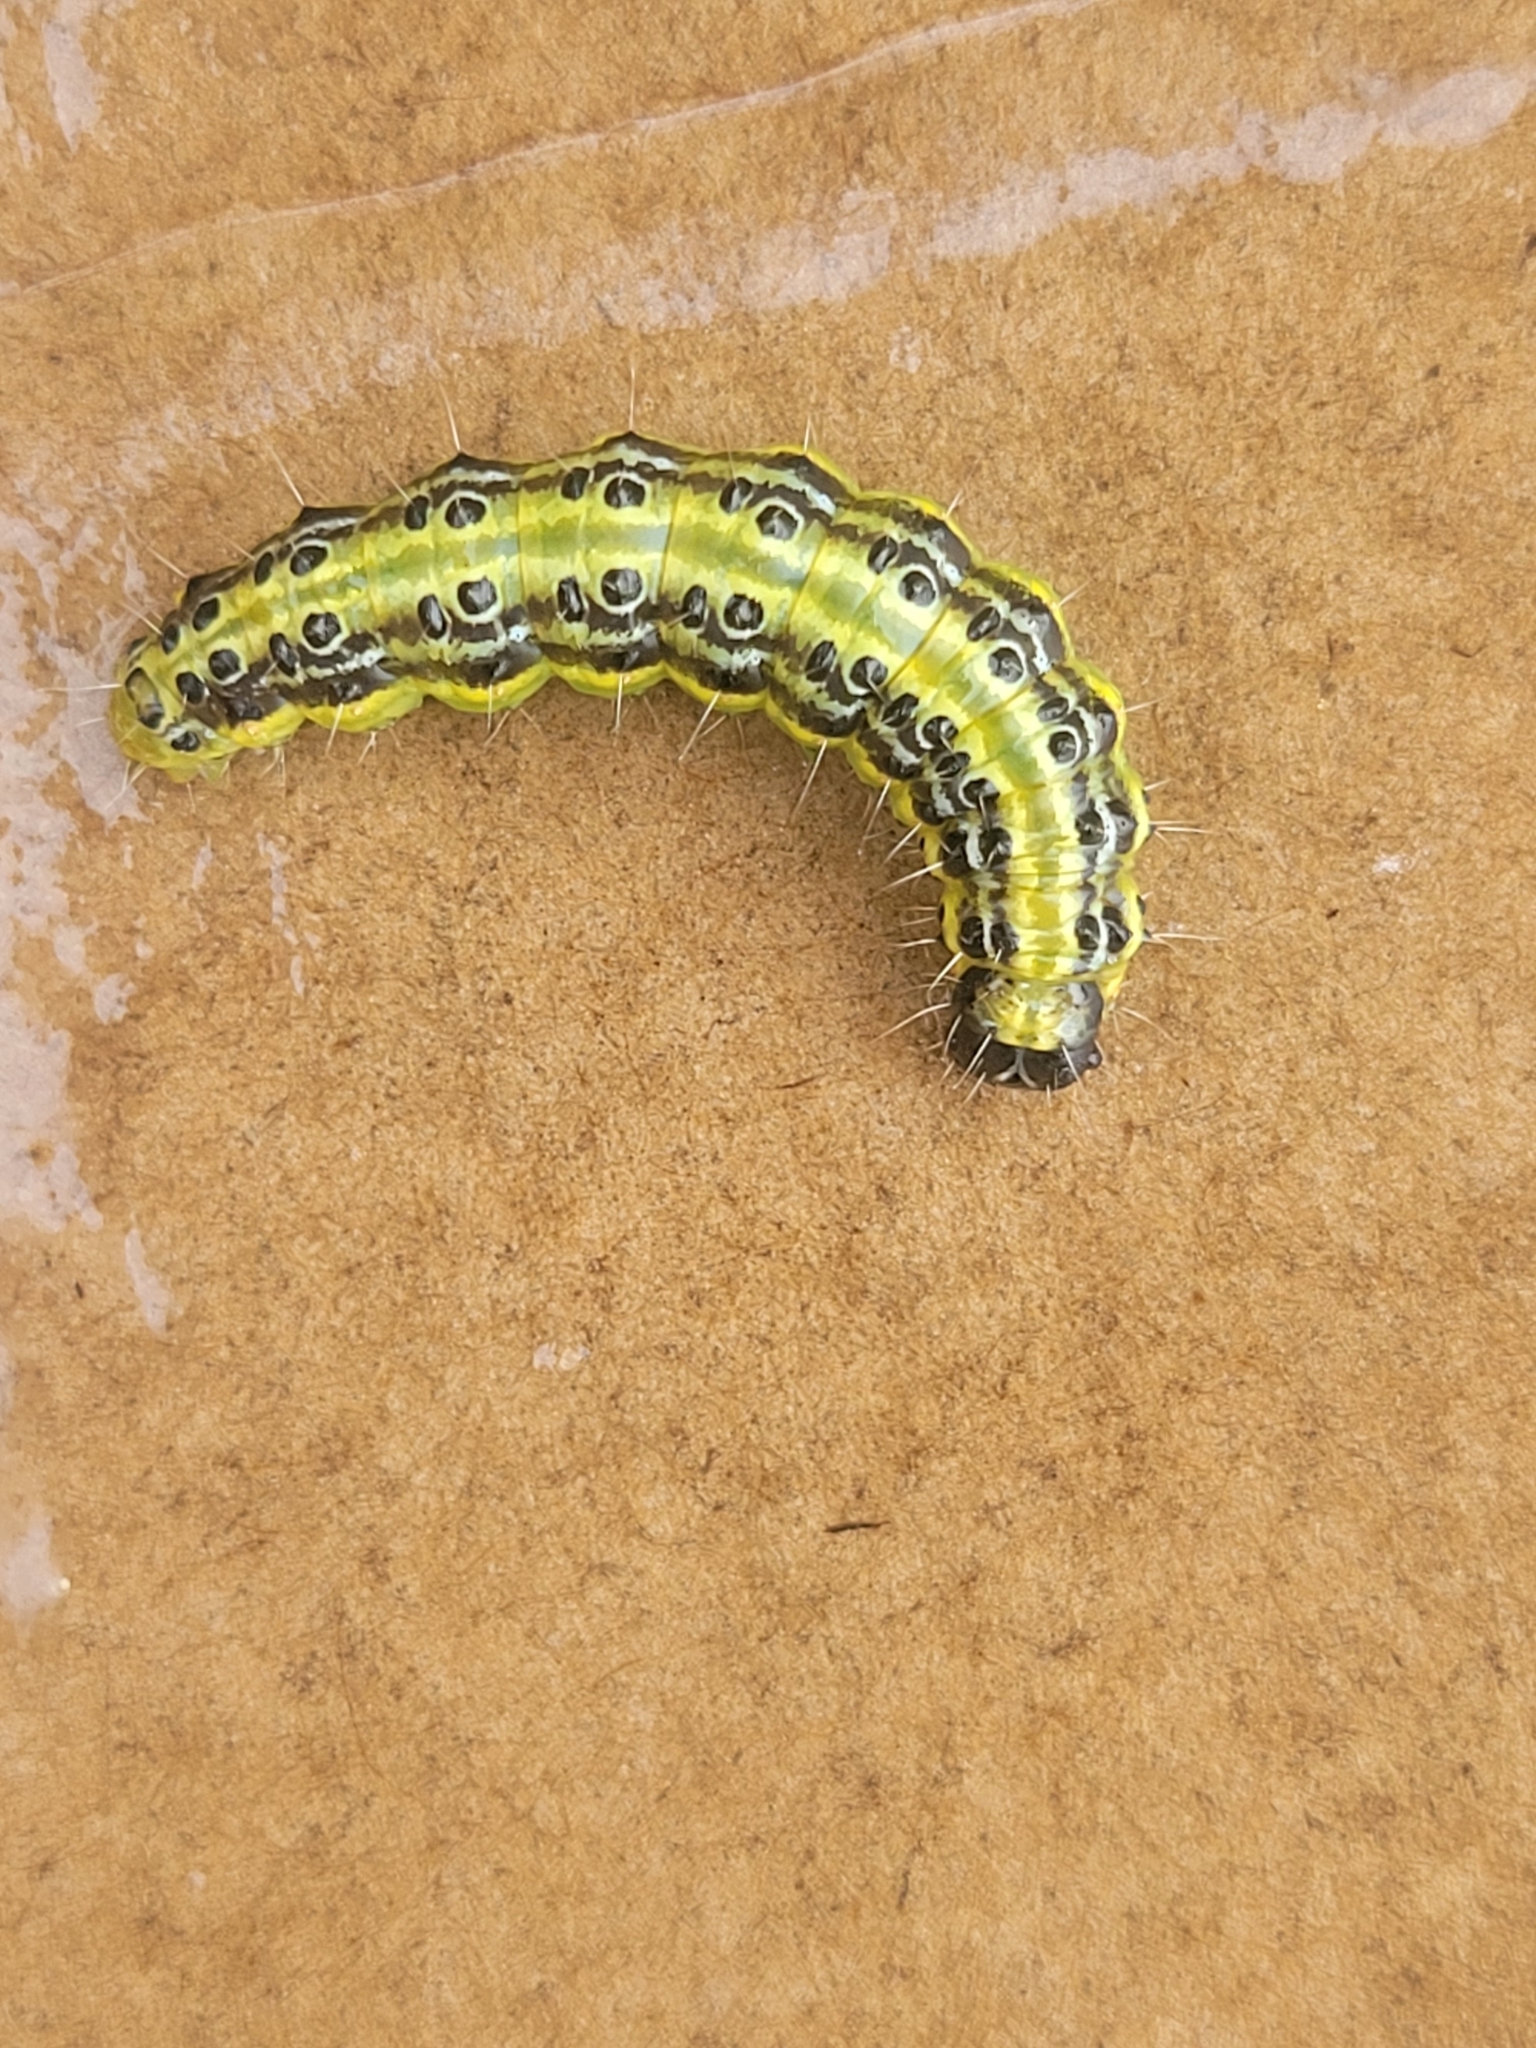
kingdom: Animalia
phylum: Arthropoda
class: Insecta
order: Lepidoptera
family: Crambidae
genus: Cydalima
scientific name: Cydalima perspectalis
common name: Box tree moth
